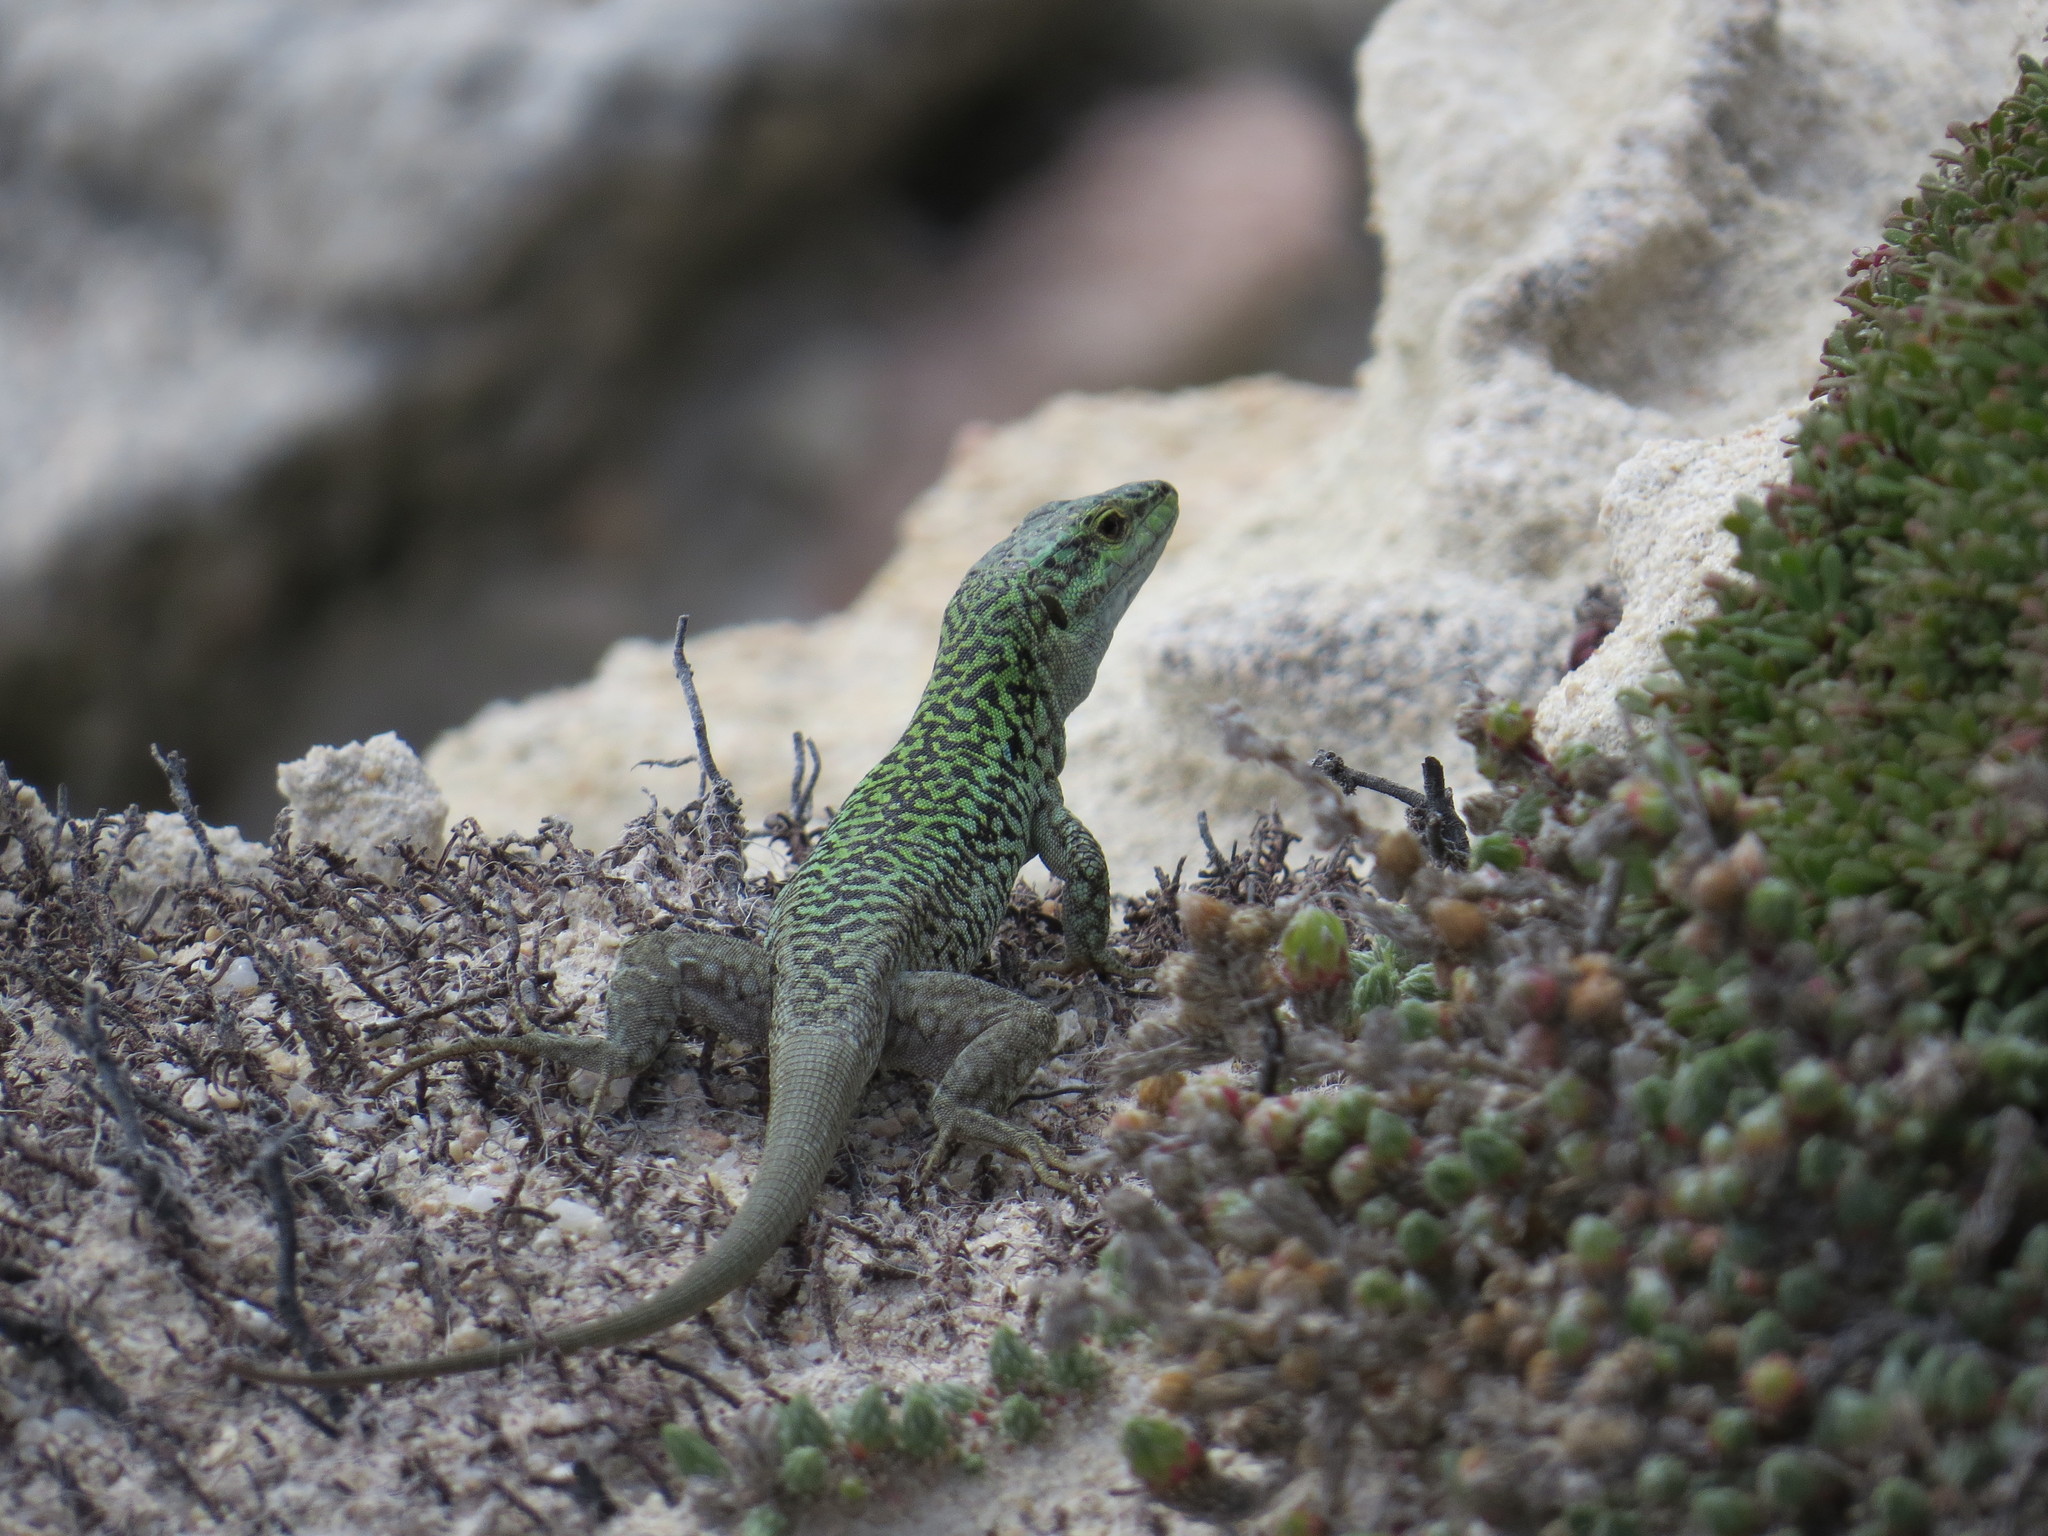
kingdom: Animalia
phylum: Chordata
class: Squamata
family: Lacertidae
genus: Podarcis
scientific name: Podarcis siculus
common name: Italian wall lizard
